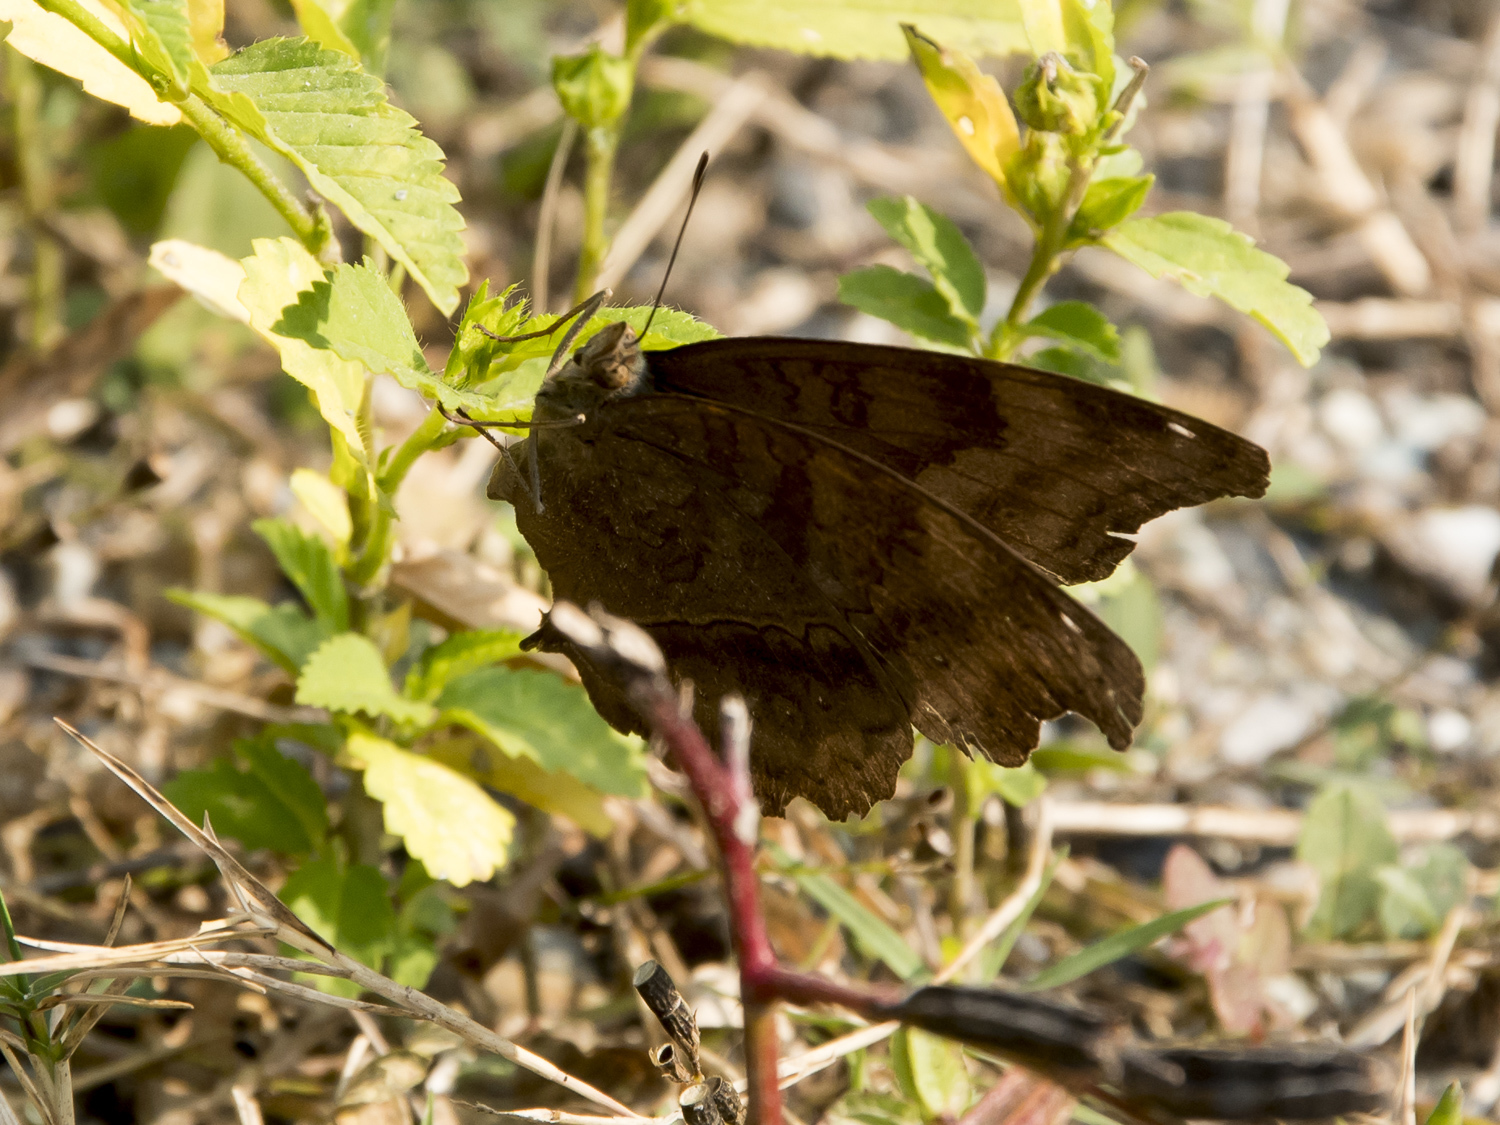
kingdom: Animalia
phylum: Arthropoda
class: Insecta
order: Lepidoptera
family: Nymphalidae
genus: Junonia
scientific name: Junonia iphita
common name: Chocolate pansy
